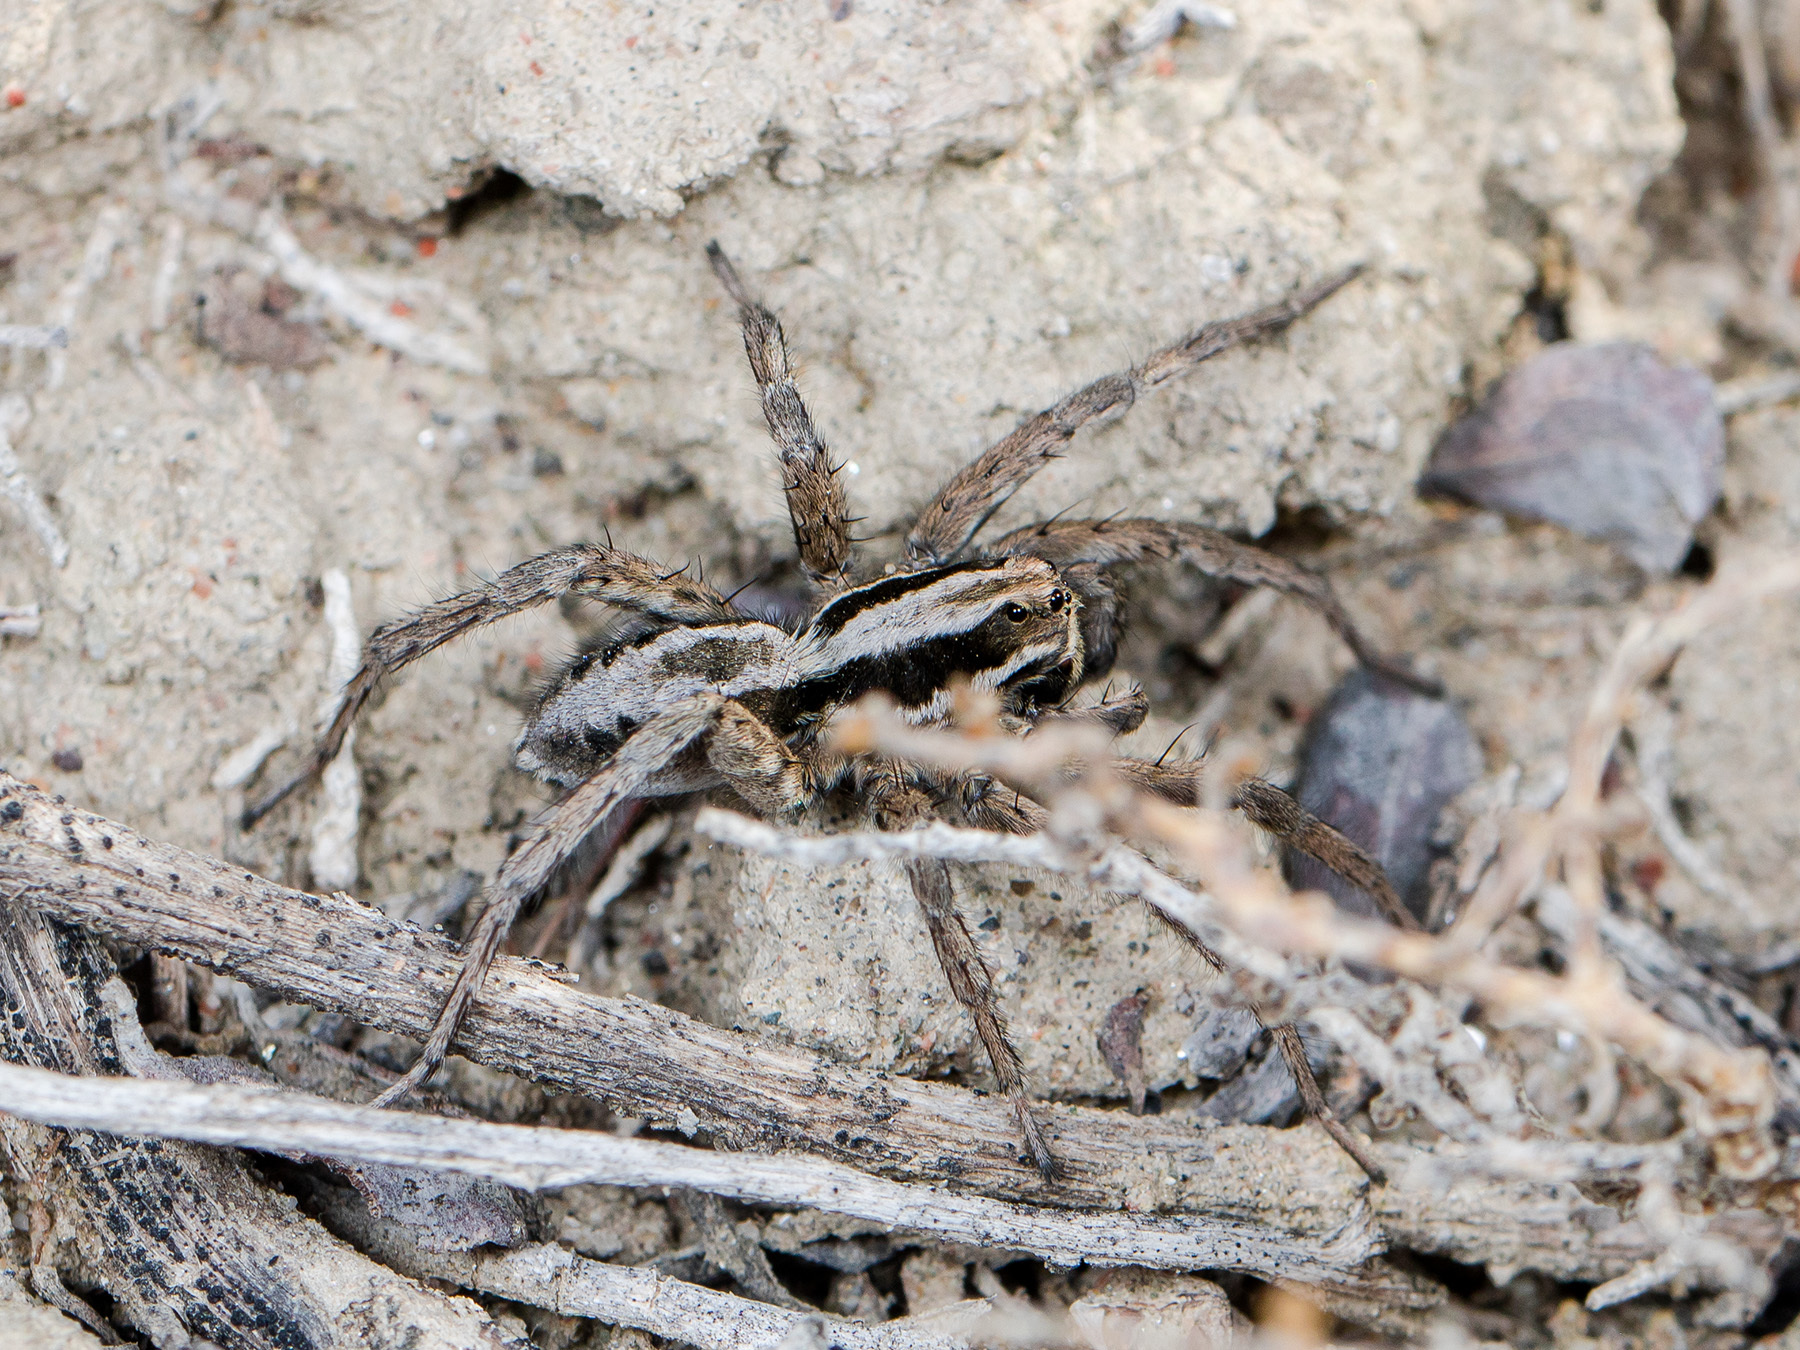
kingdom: Animalia
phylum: Arthropoda
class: Arachnida
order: Araneae
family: Lycosidae
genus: Alopecosa
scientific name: Alopecosa fedotovi
